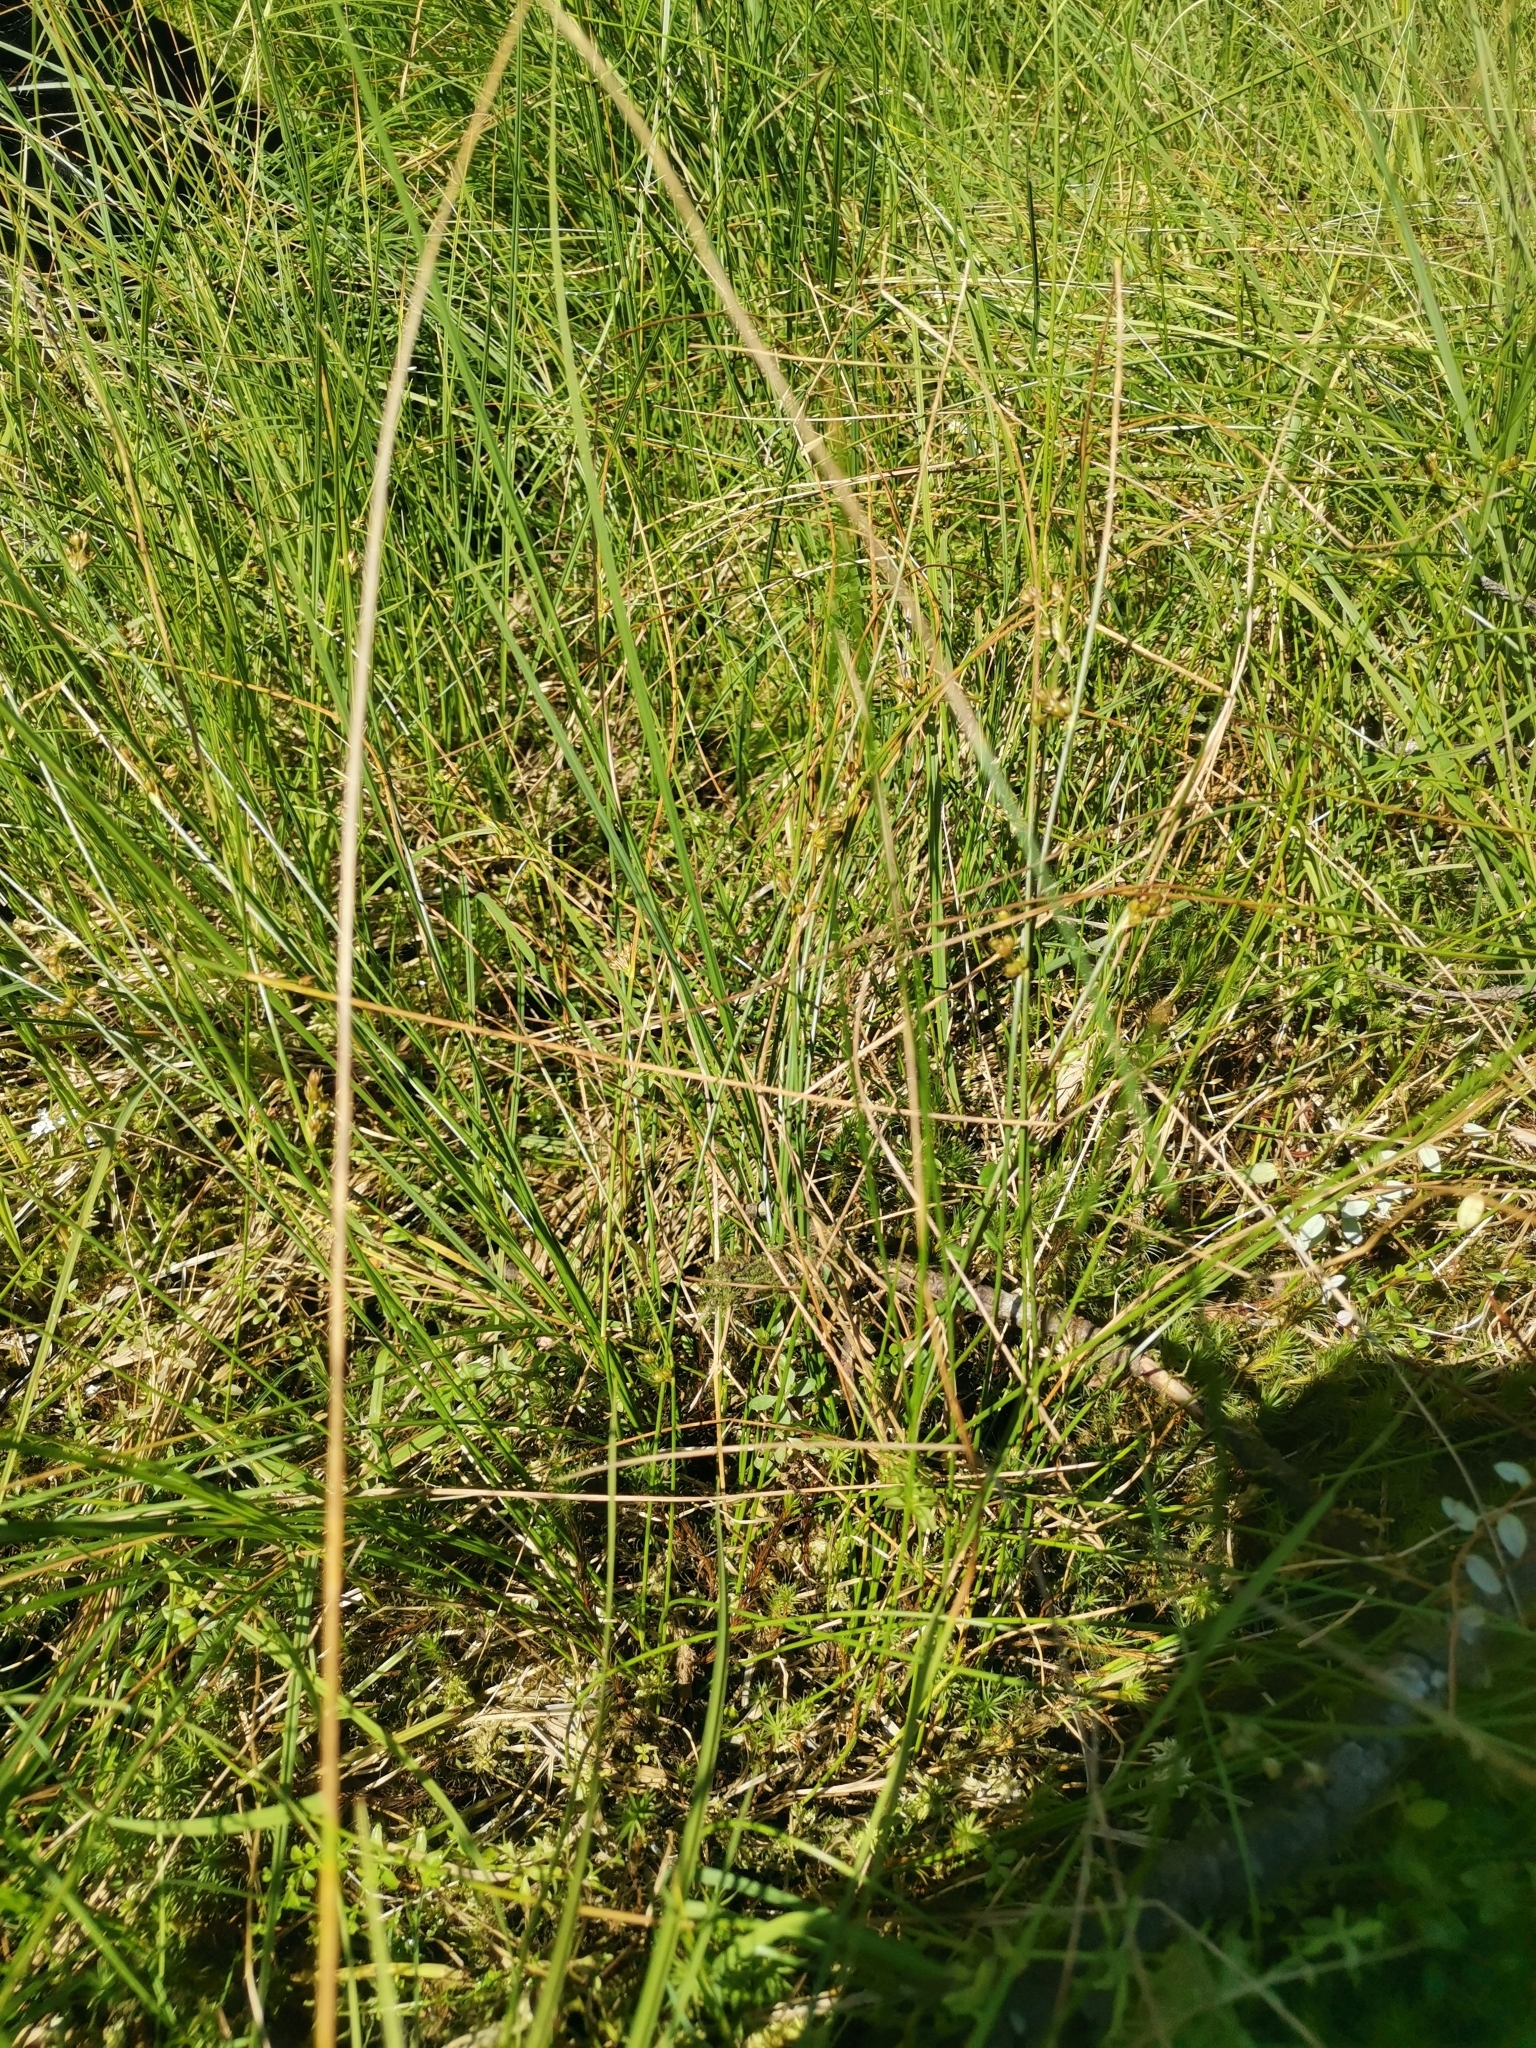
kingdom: Plantae
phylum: Tracheophyta
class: Liliopsida
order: Poales
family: Juncaceae
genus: Juncus
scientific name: Juncus filiformis
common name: Thread rush
